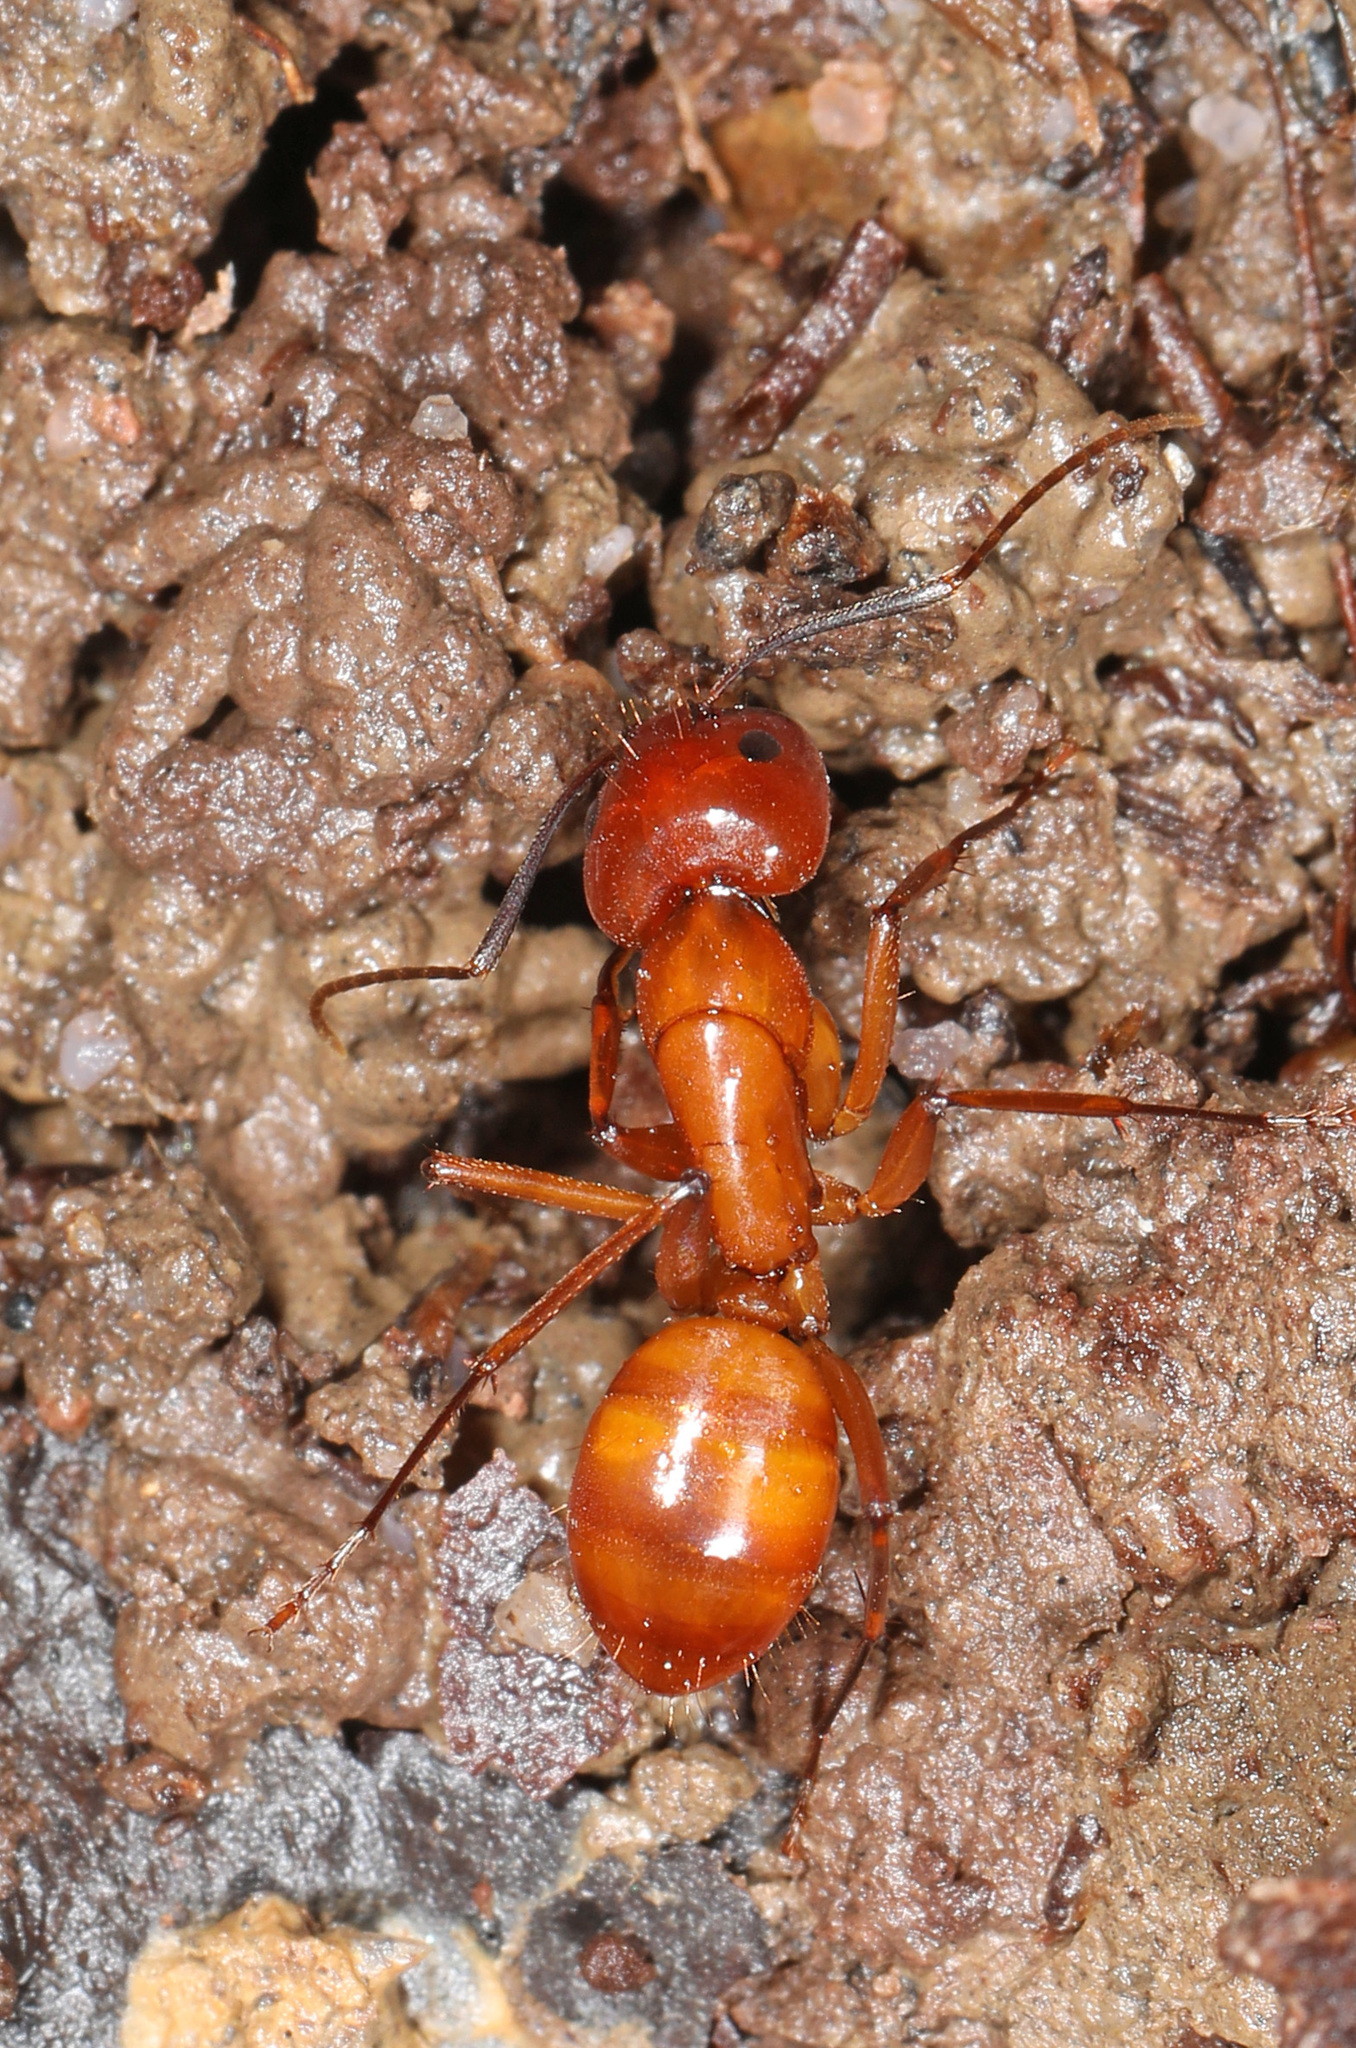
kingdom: Animalia
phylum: Arthropoda
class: Insecta
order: Hymenoptera
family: Formicidae
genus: Camponotus
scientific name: Camponotus castaneus
